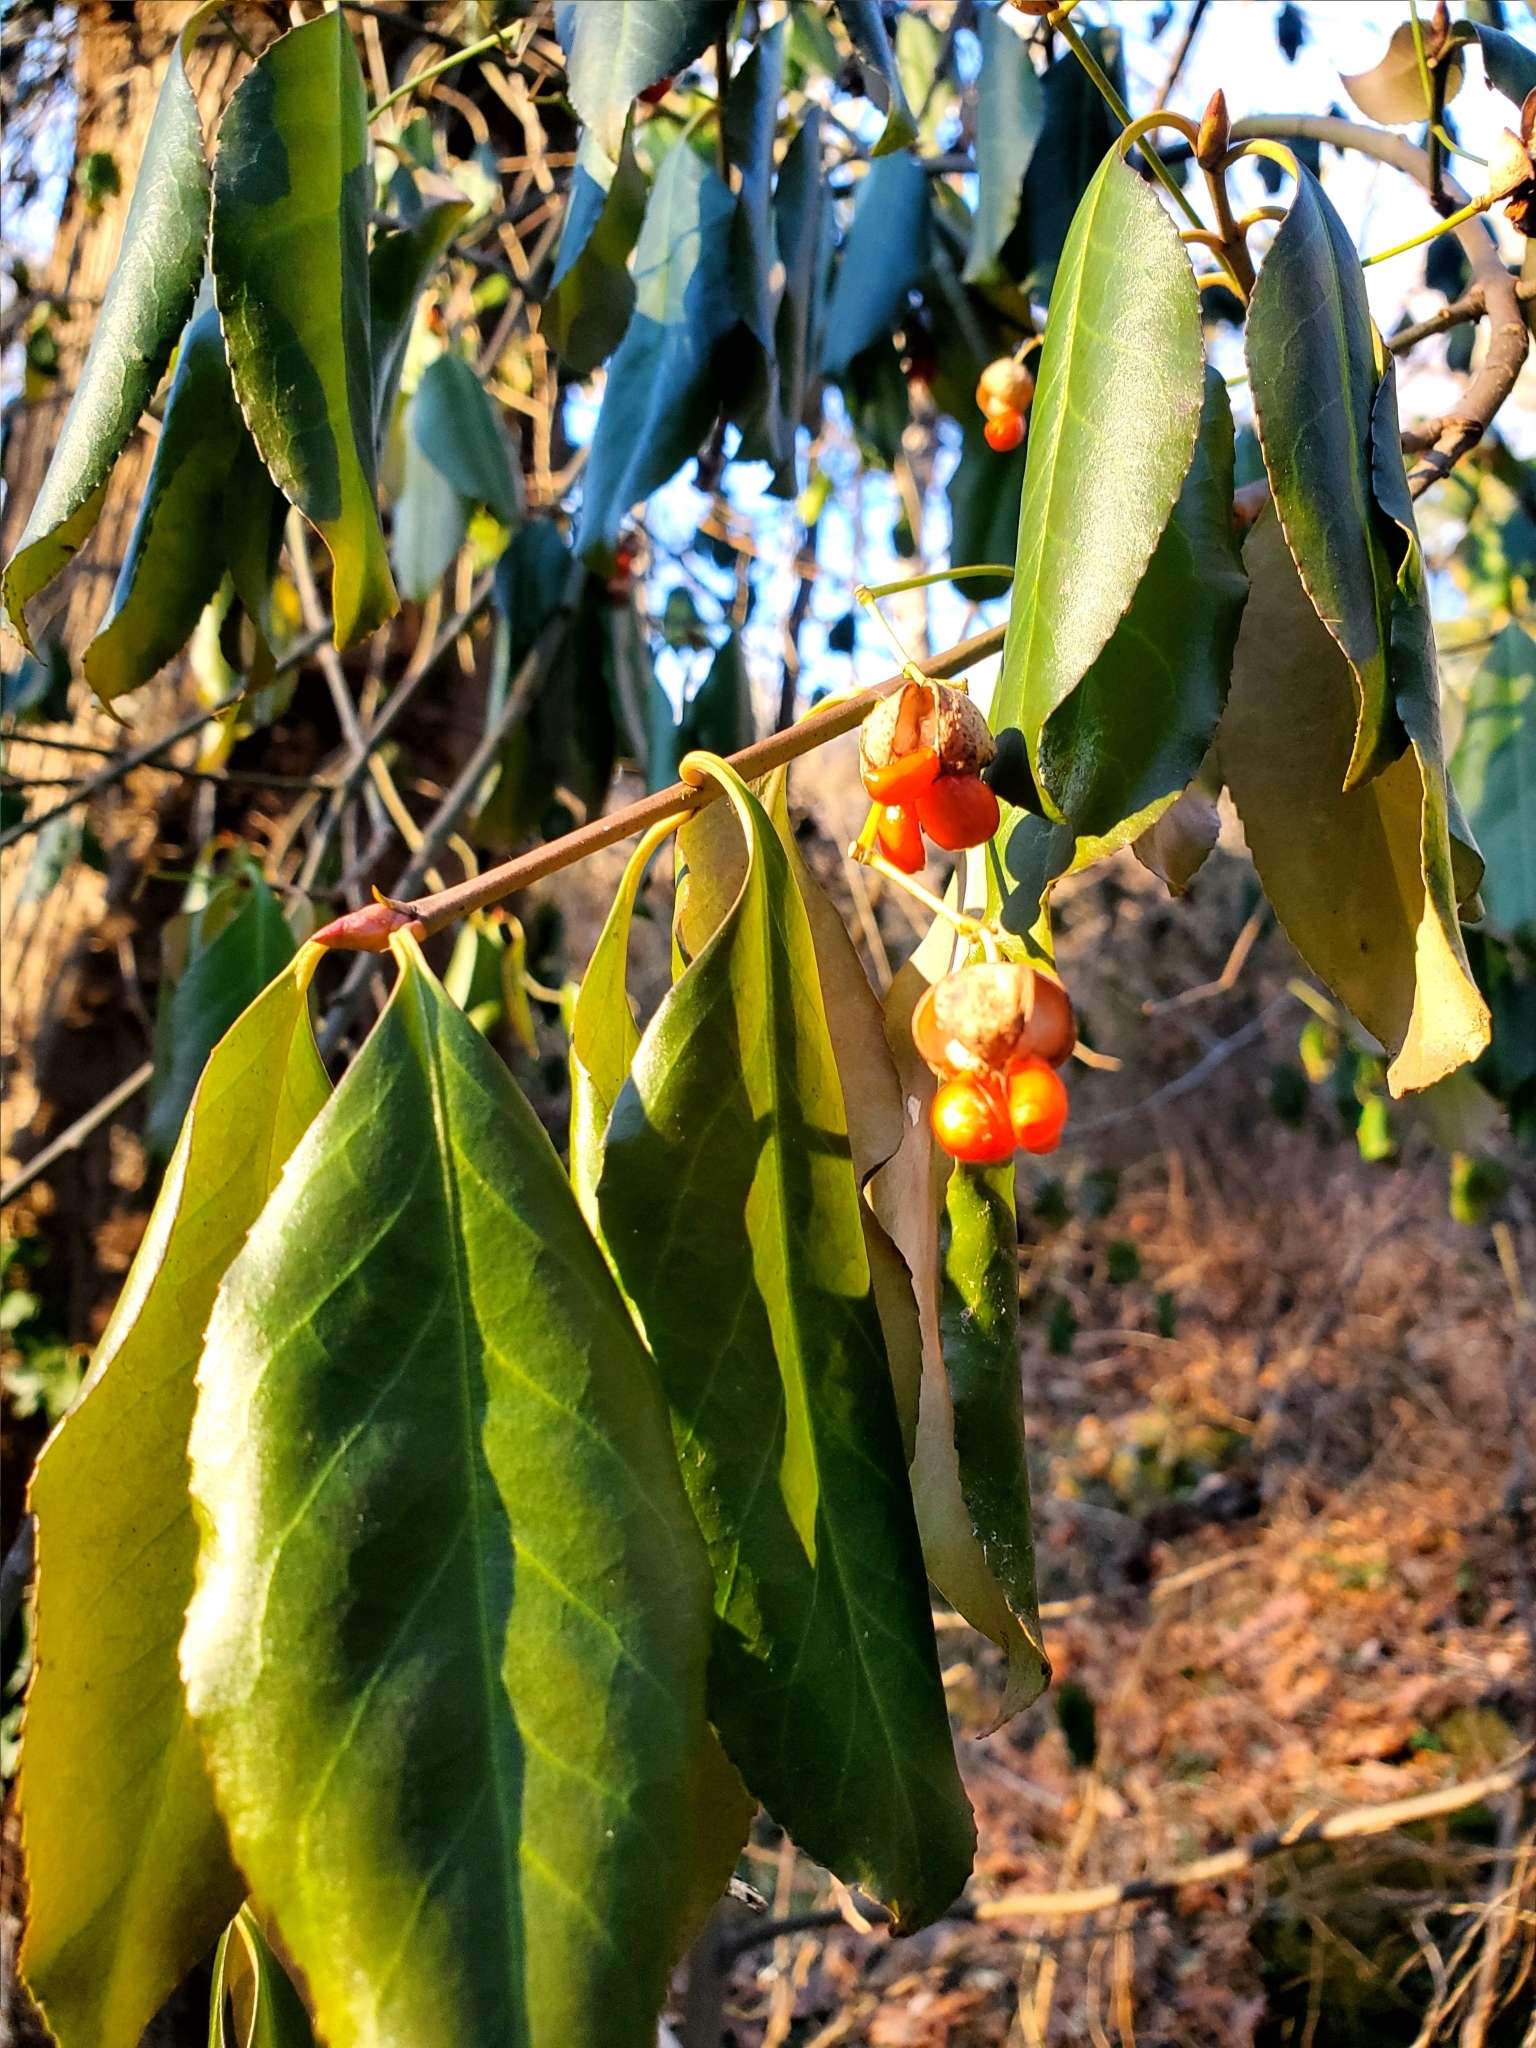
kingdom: Plantae
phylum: Tracheophyta
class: Magnoliopsida
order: Celastrales
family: Celastraceae
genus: Euonymus
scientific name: Euonymus fortunei
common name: Climbing euonymus
